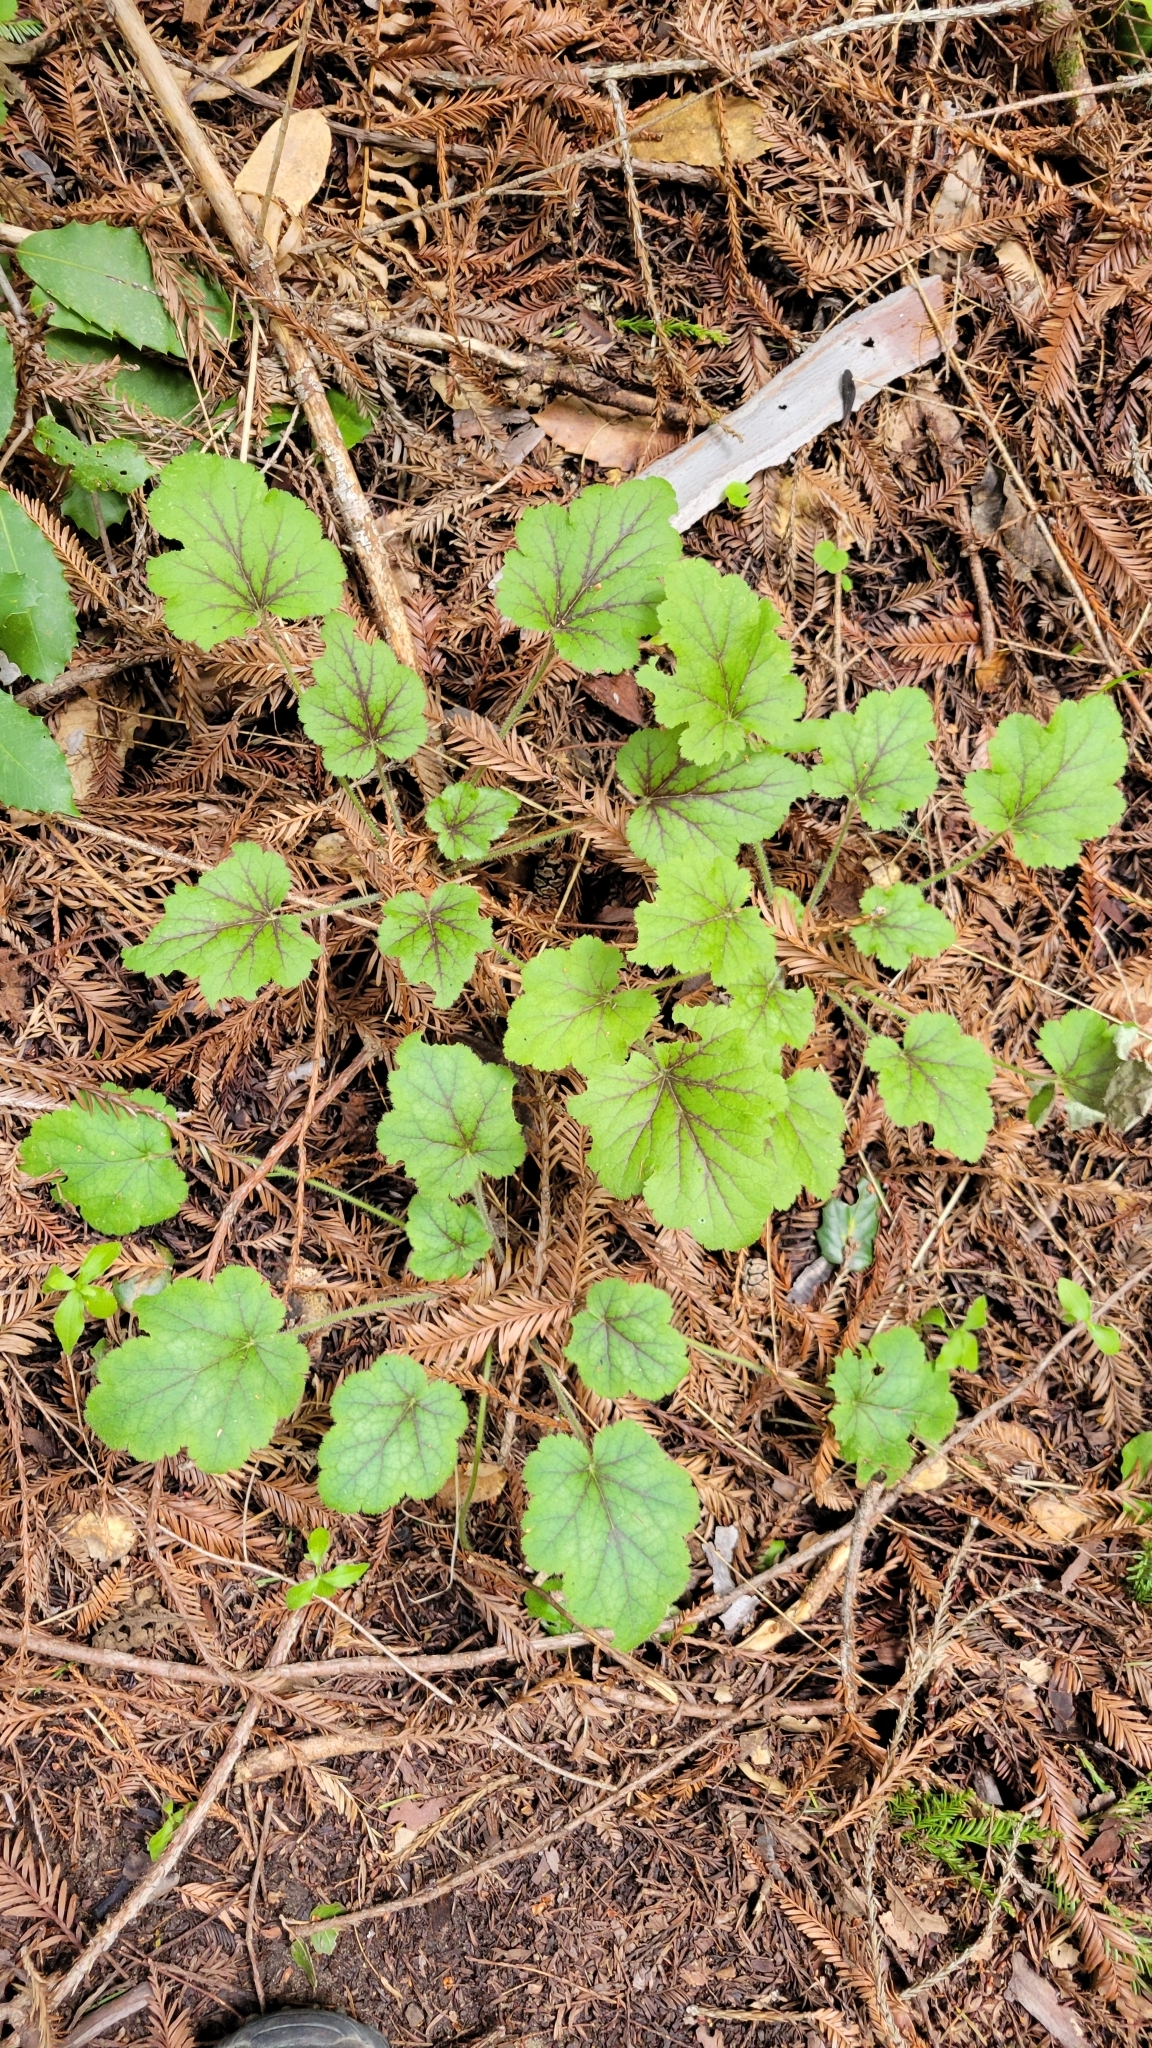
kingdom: Plantae
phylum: Tracheophyta
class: Magnoliopsida
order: Saxifragales
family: Saxifragaceae
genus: Heuchera
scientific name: Heuchera micrantha
